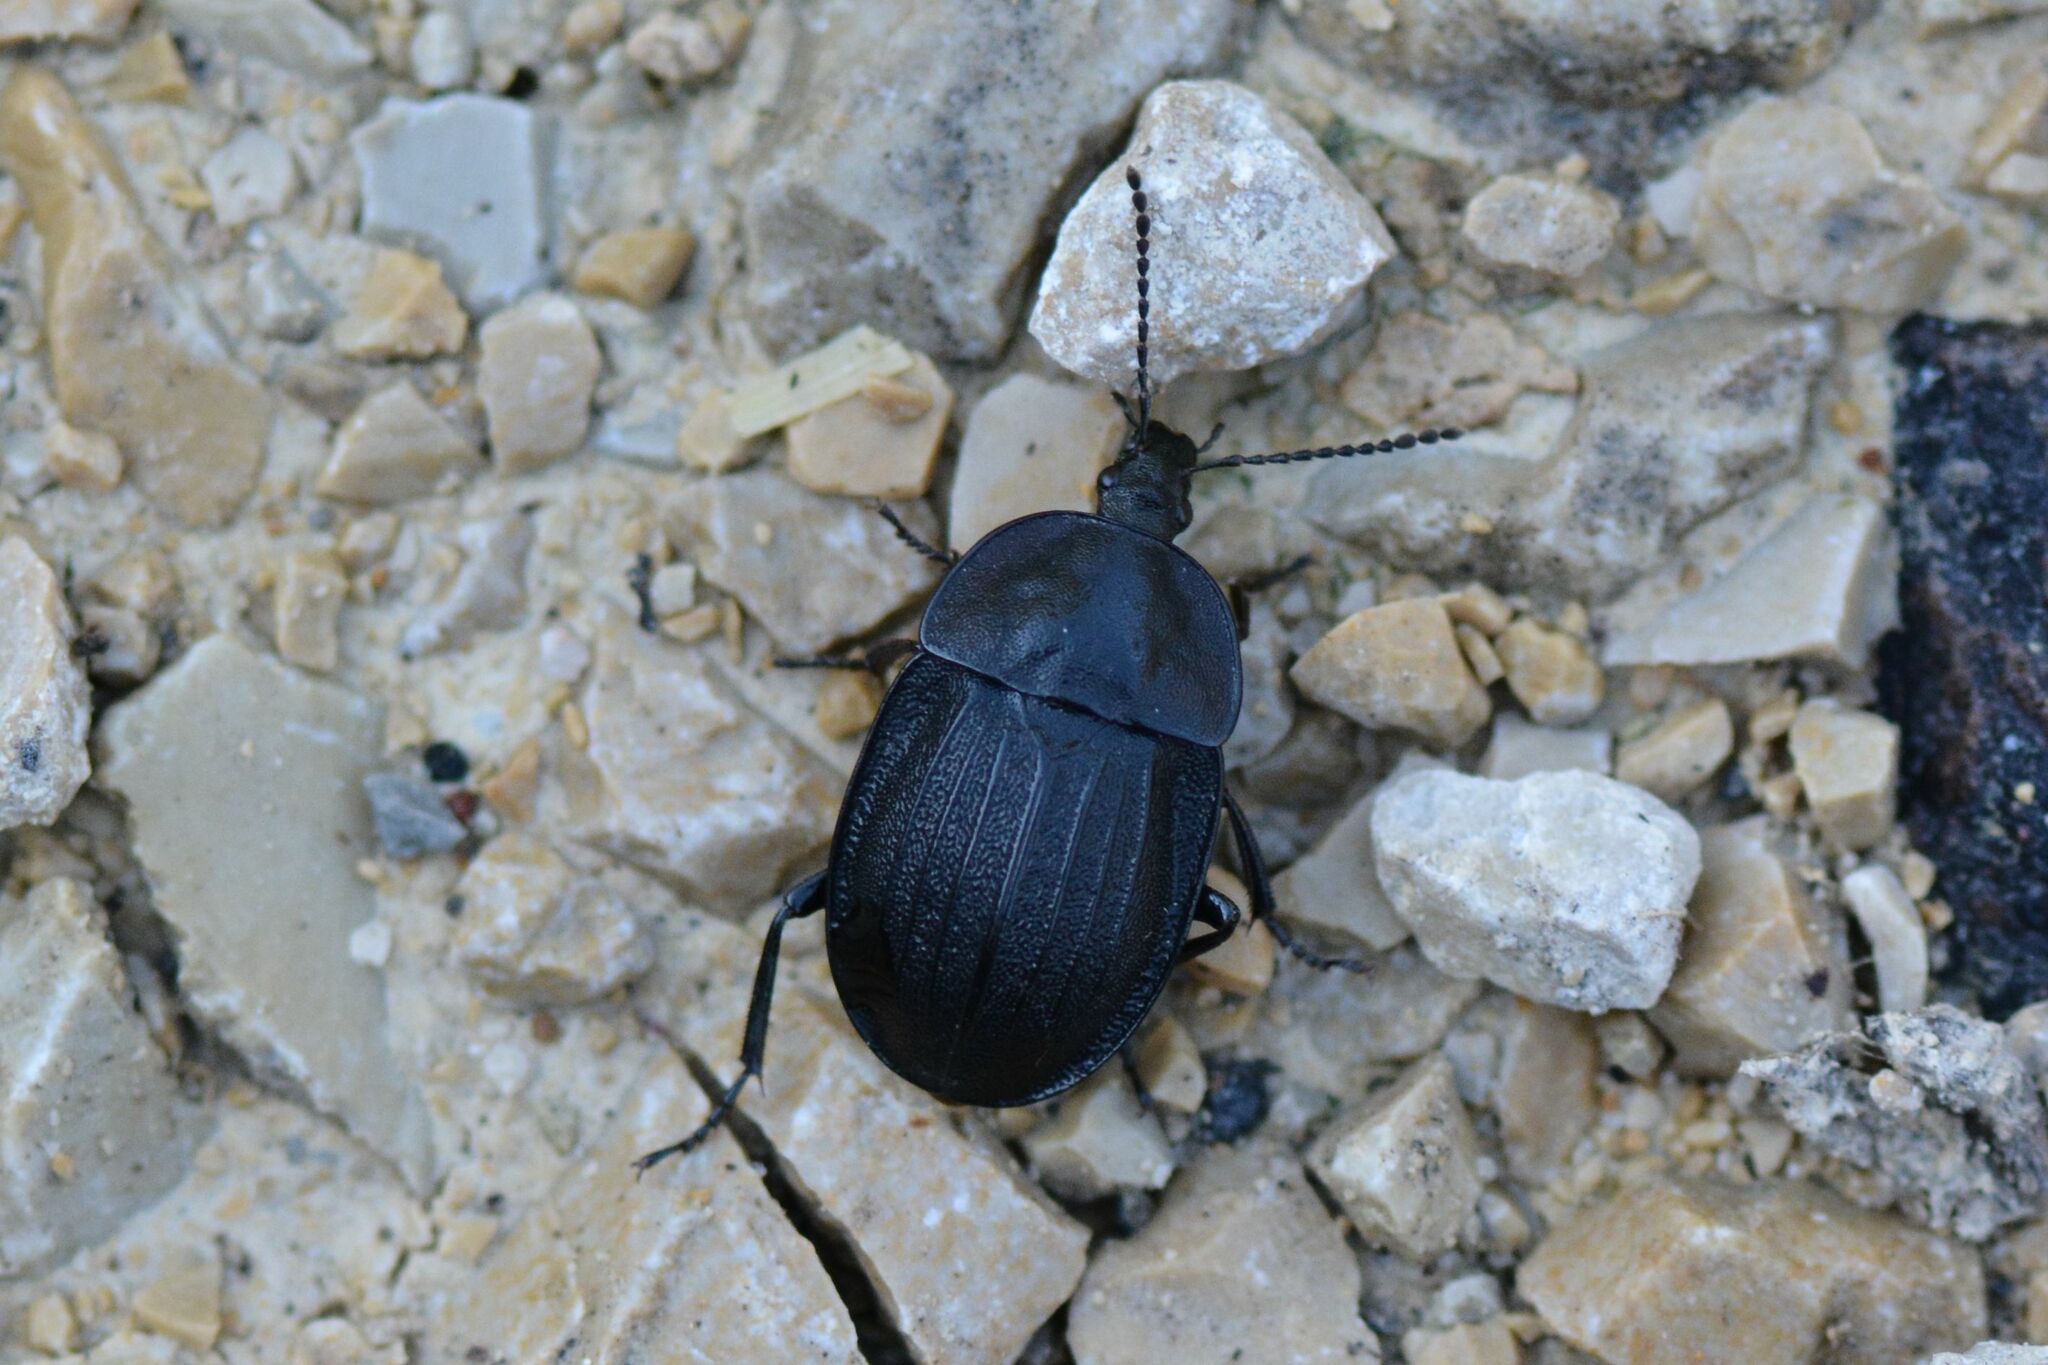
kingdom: Animalia
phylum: Arthropoda
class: Insecta
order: Coleoptera
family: Staphylinidae
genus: Silpha
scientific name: Silpha atrata
